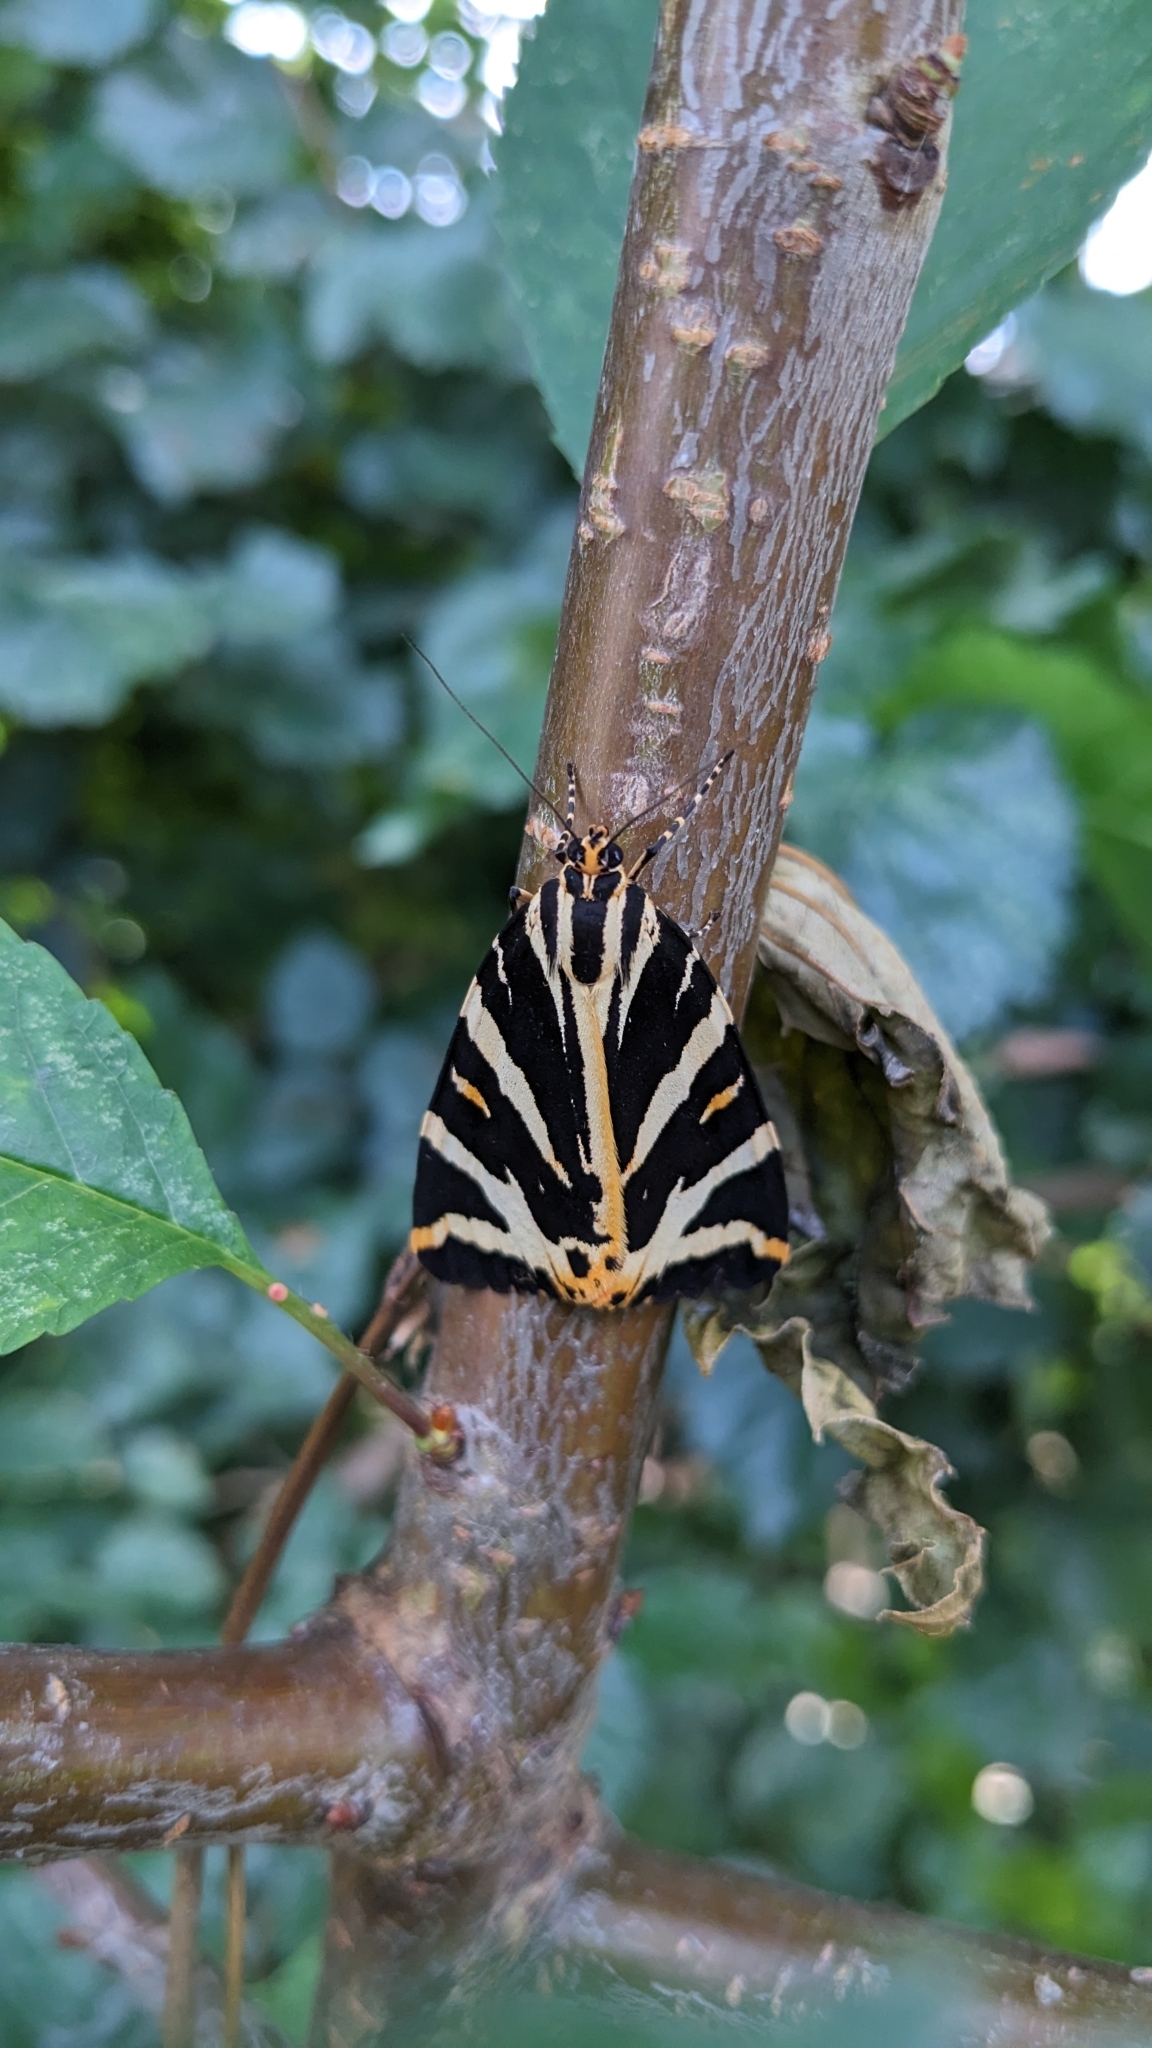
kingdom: Animalia
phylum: Arthropoda
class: Insecta
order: Lepidoptera
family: Erebidae
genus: Euplagia
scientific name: Euplagia quadripunctaria
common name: Jersey tiger
